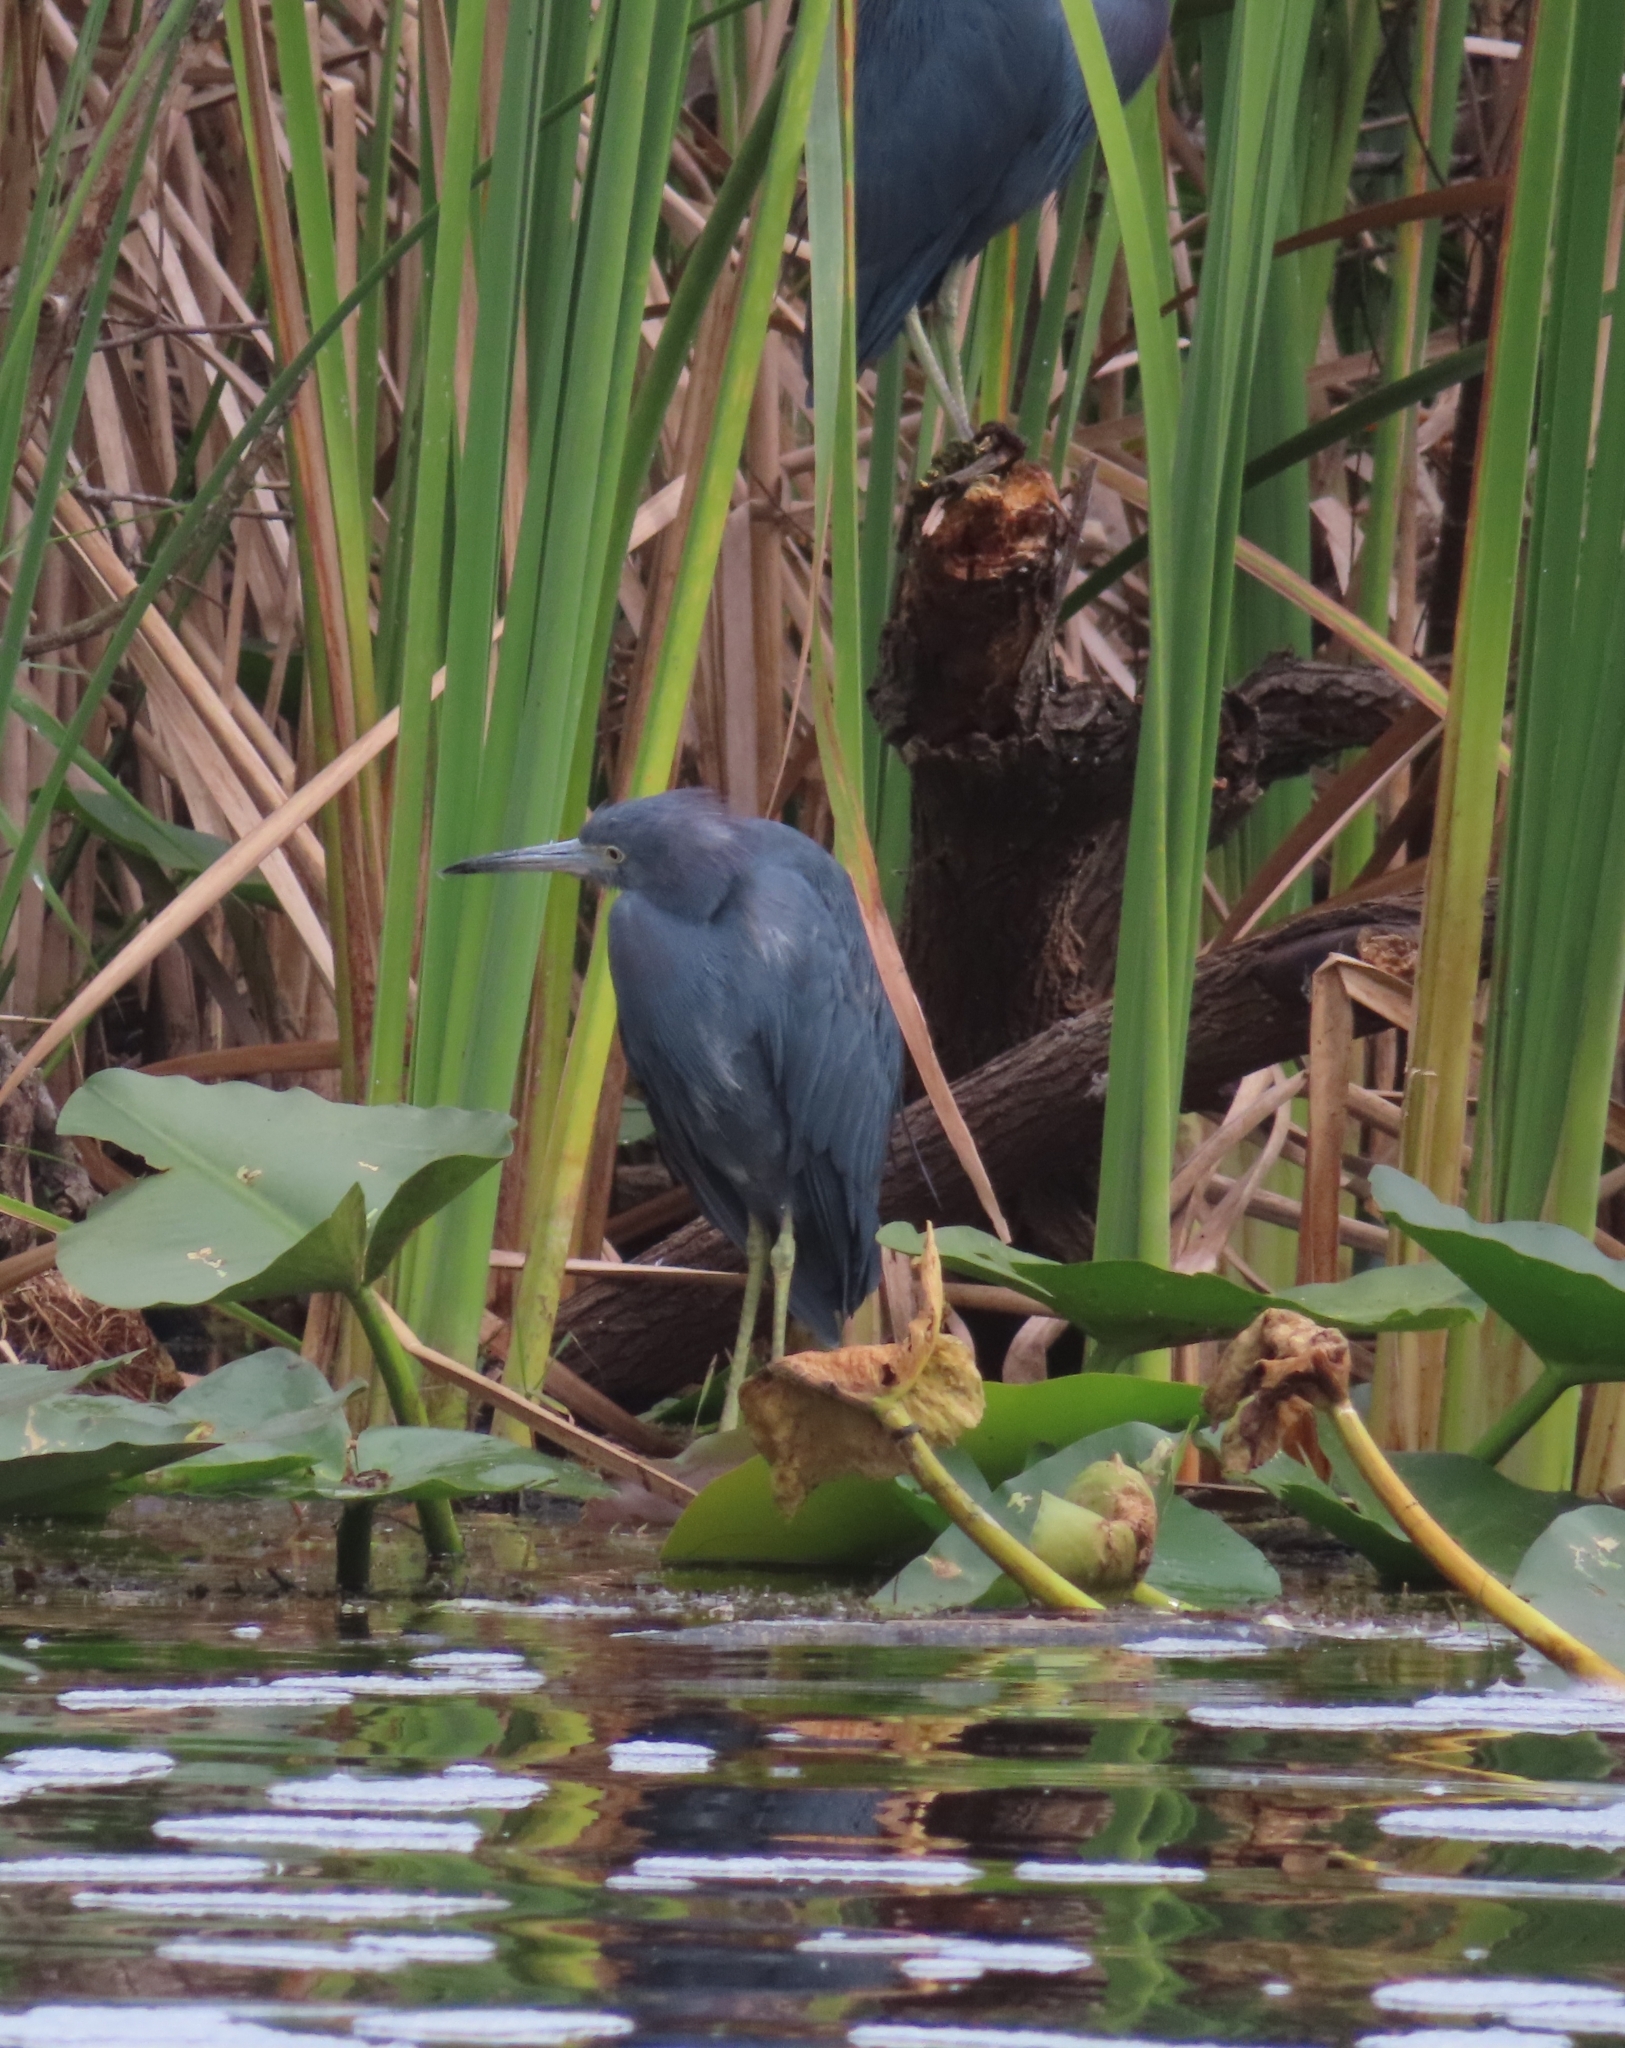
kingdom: Animalia
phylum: Chordata
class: Aves
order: Pelecaniformes
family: Ardeidae
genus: Egretta
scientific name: Egretta caerulea
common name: Little blue heron
